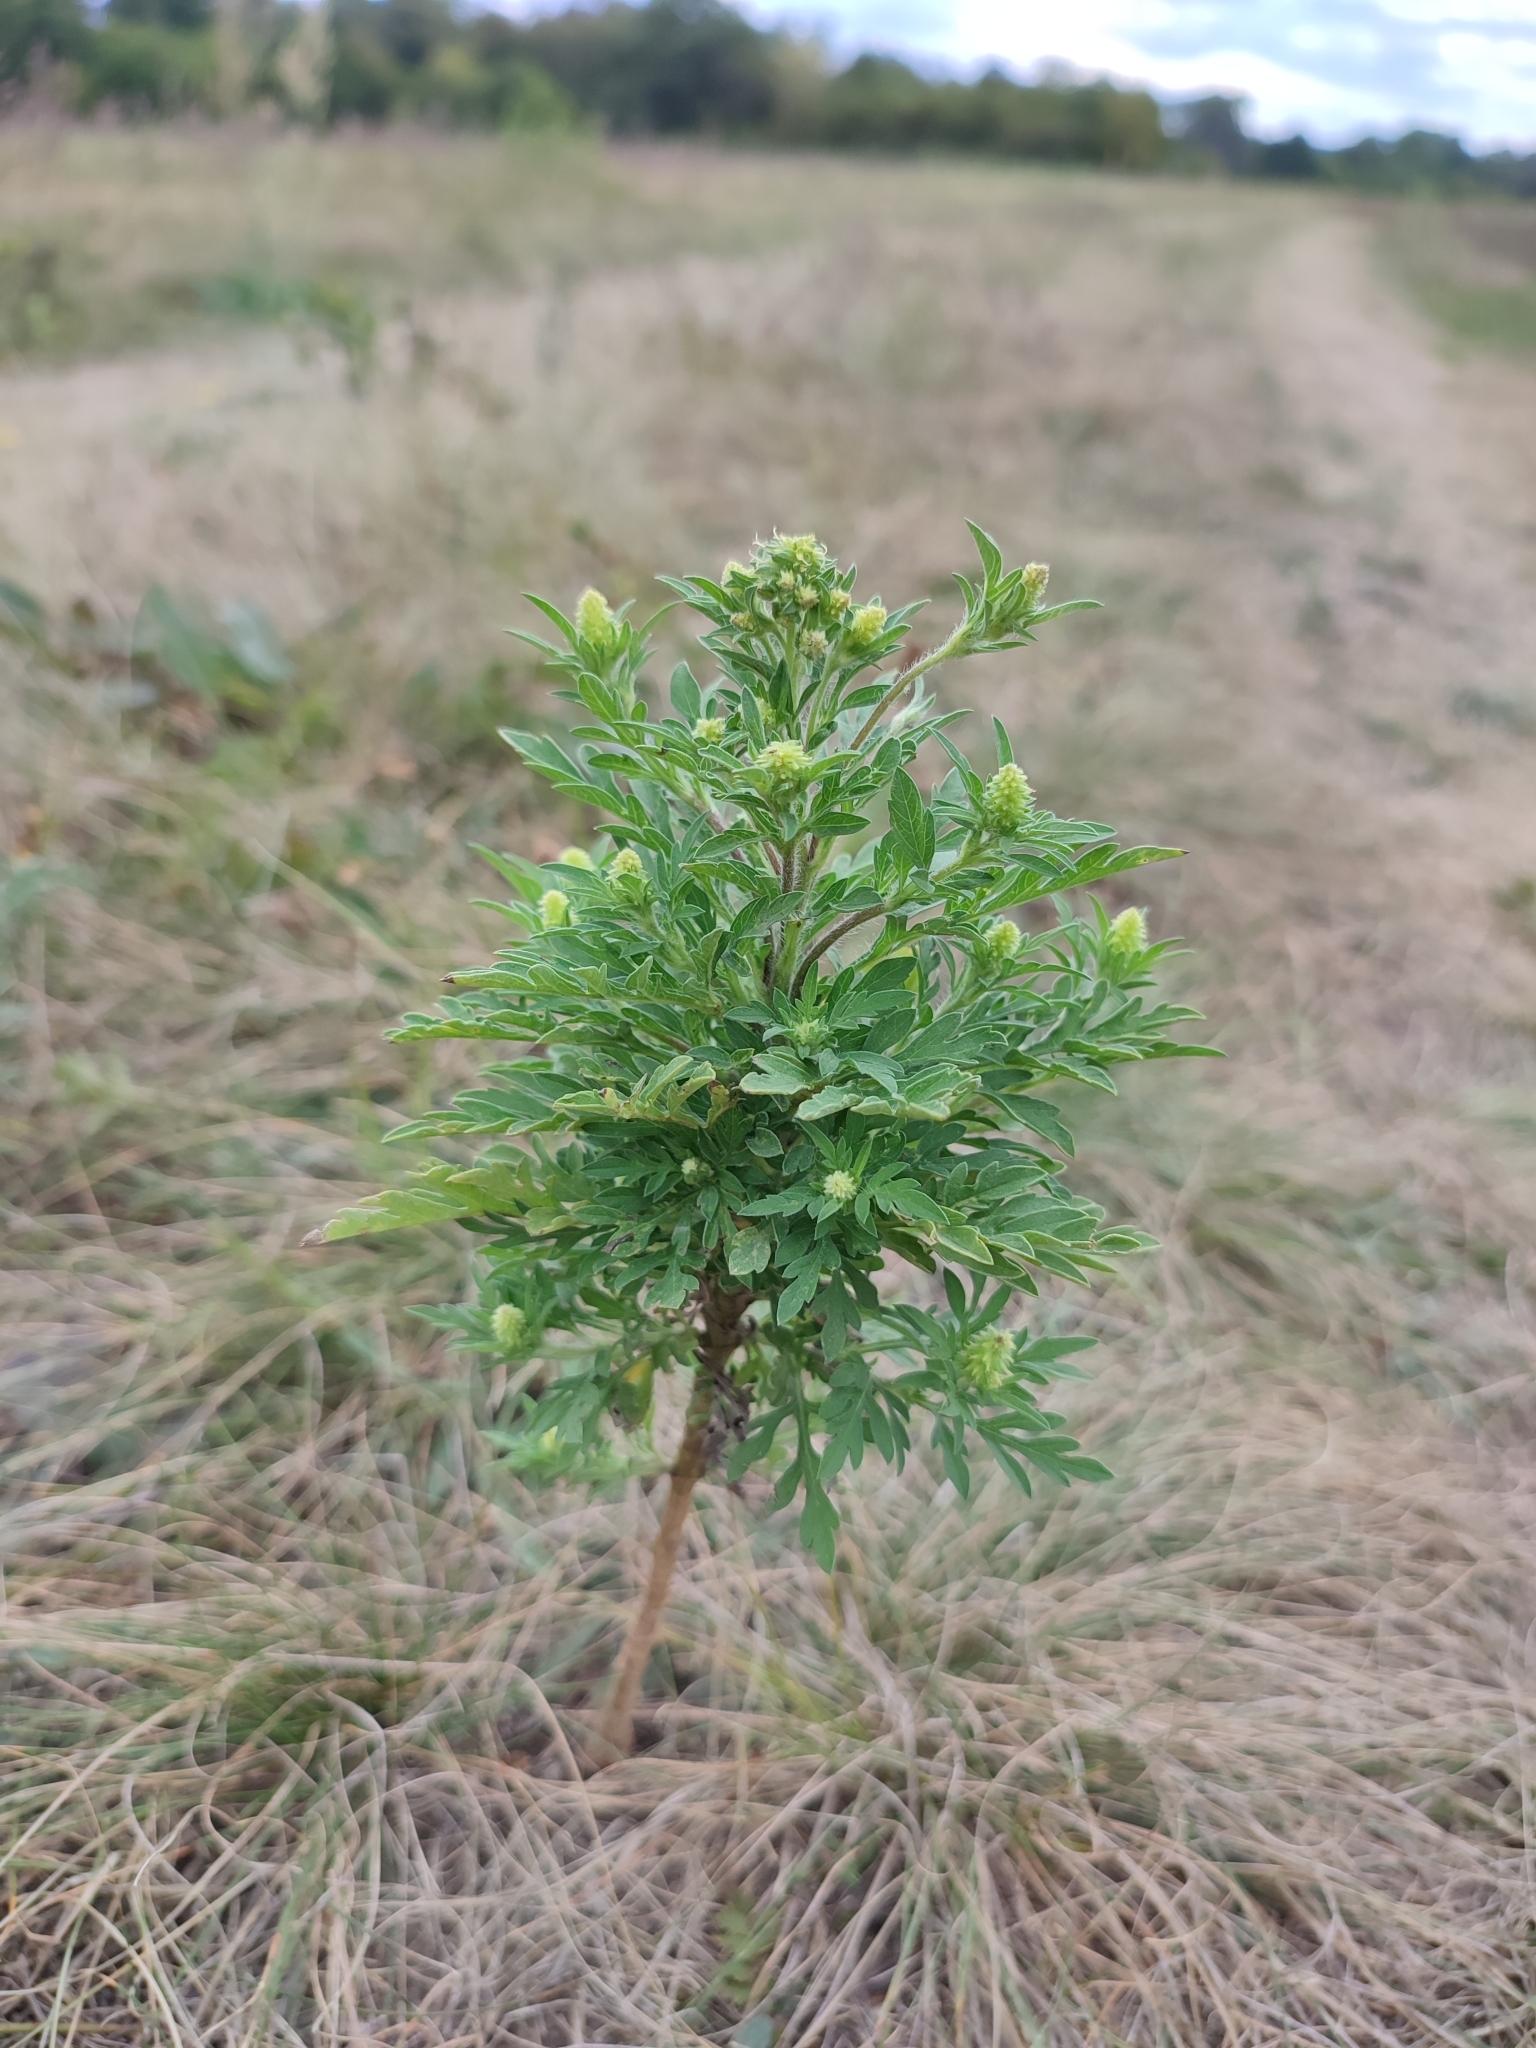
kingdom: Plantae
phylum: Tracheophyta
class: Magnoliopsida
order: Asterales
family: Asteraceae
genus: Ambrosia
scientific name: Ambrosia artemisiifolia
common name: Annual ragweed
